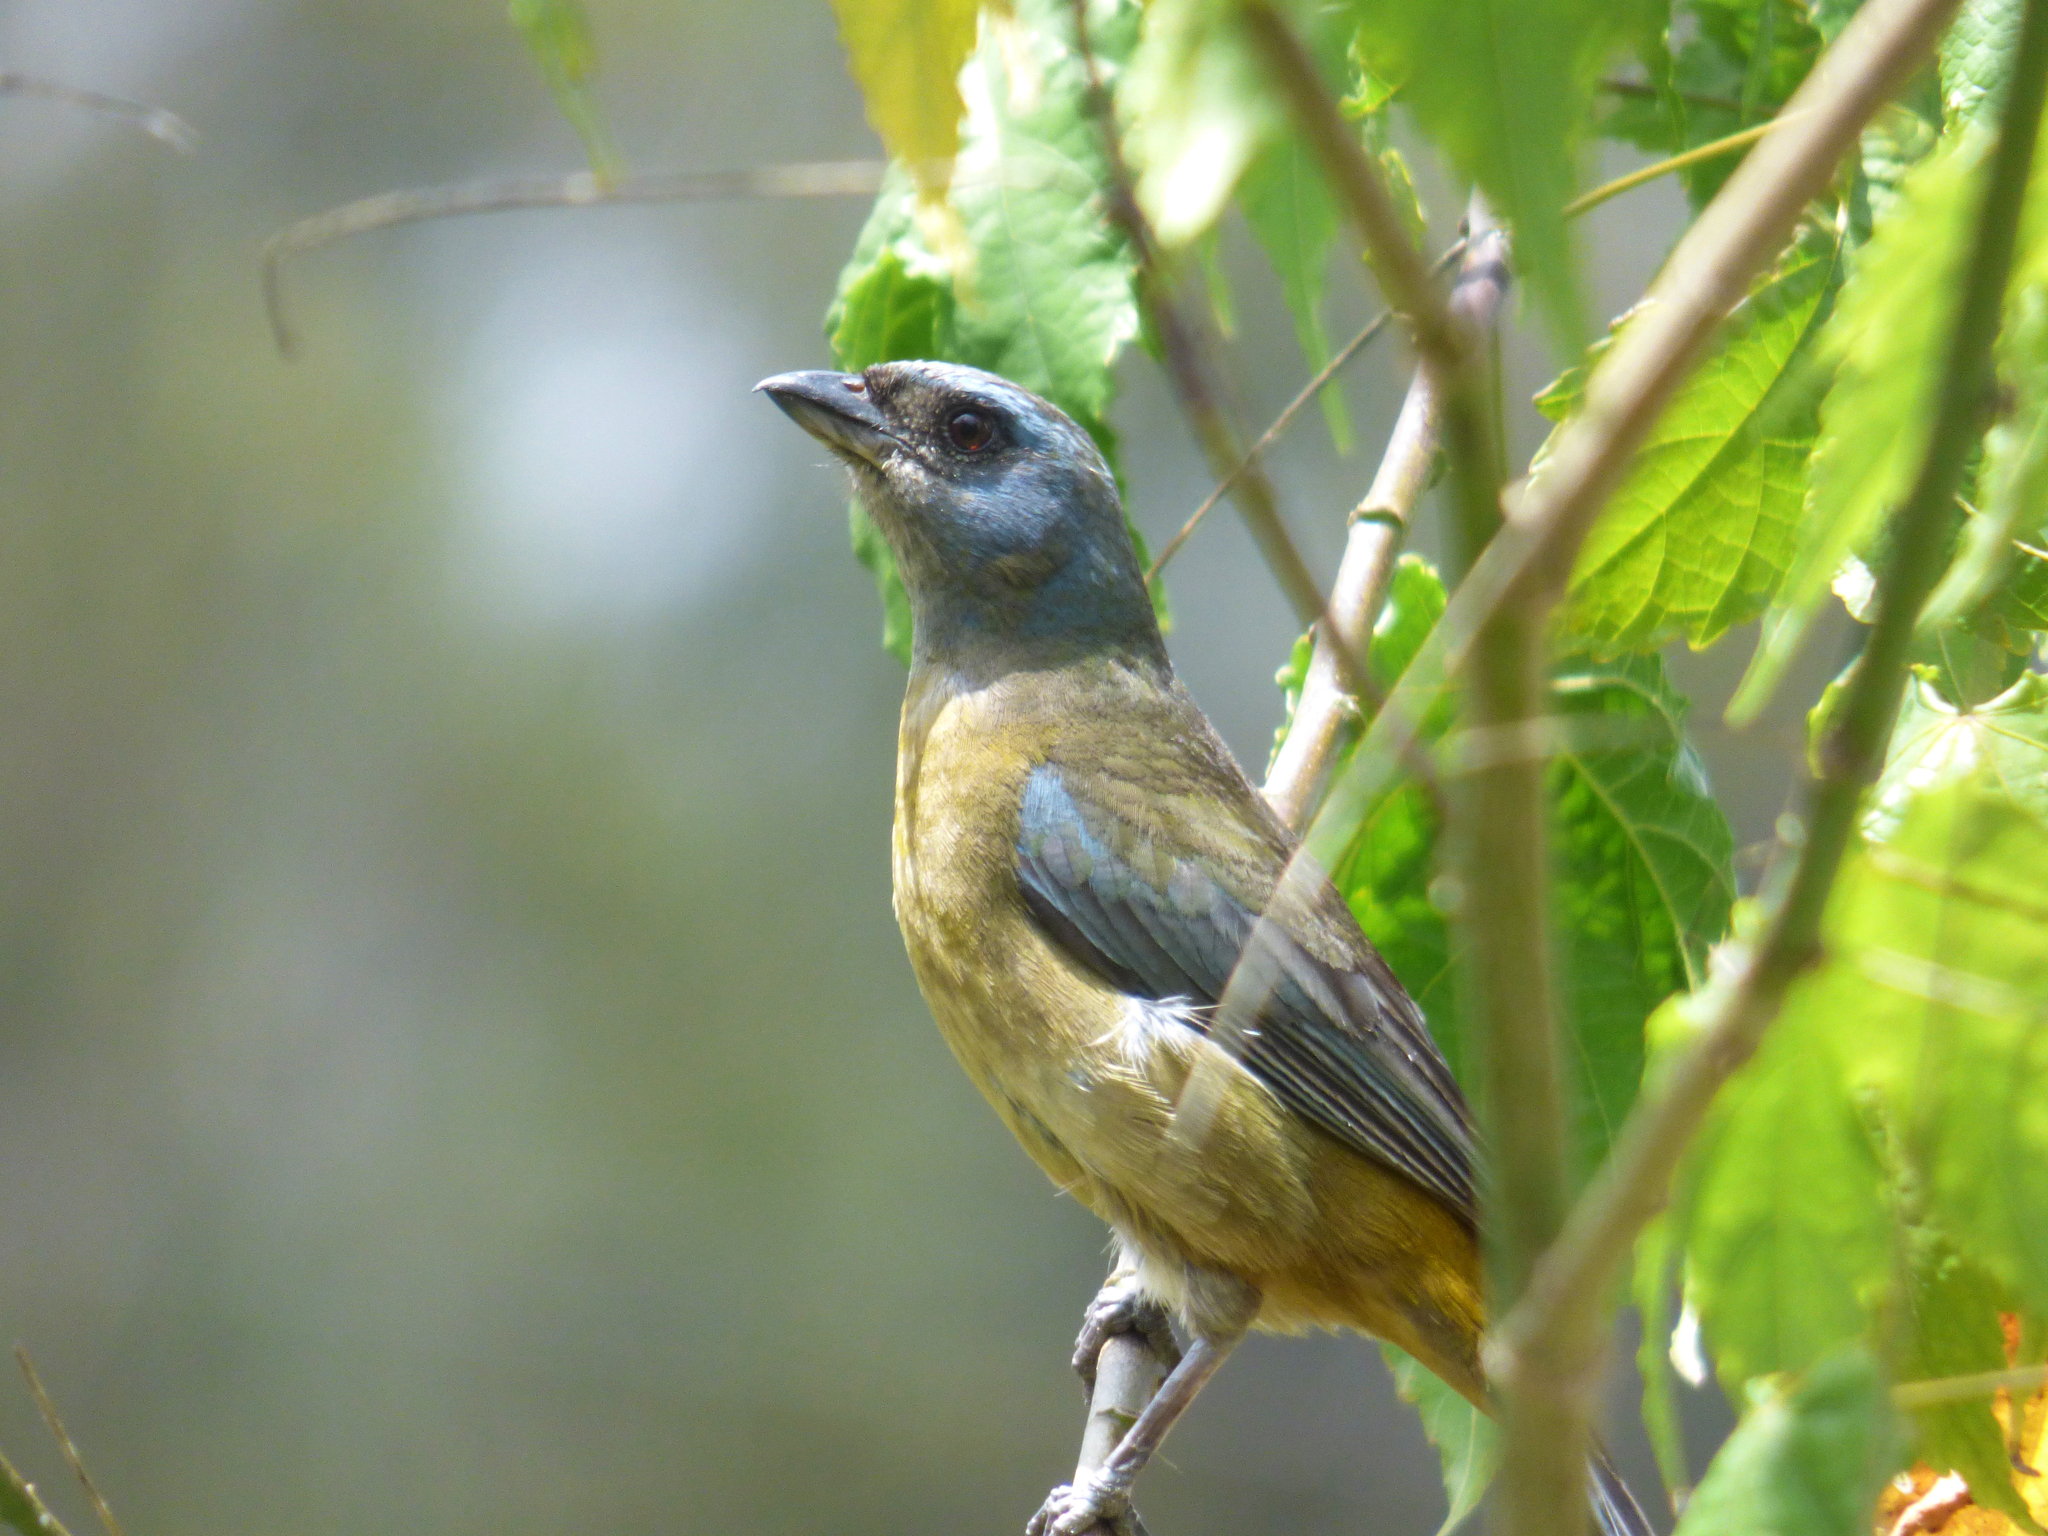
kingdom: Animalia
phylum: Chordata
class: Aves
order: Passeriformes
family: Thraupidae
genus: Rauenia
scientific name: Rauenia bonariensis
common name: Blue-and-yellow tanager
